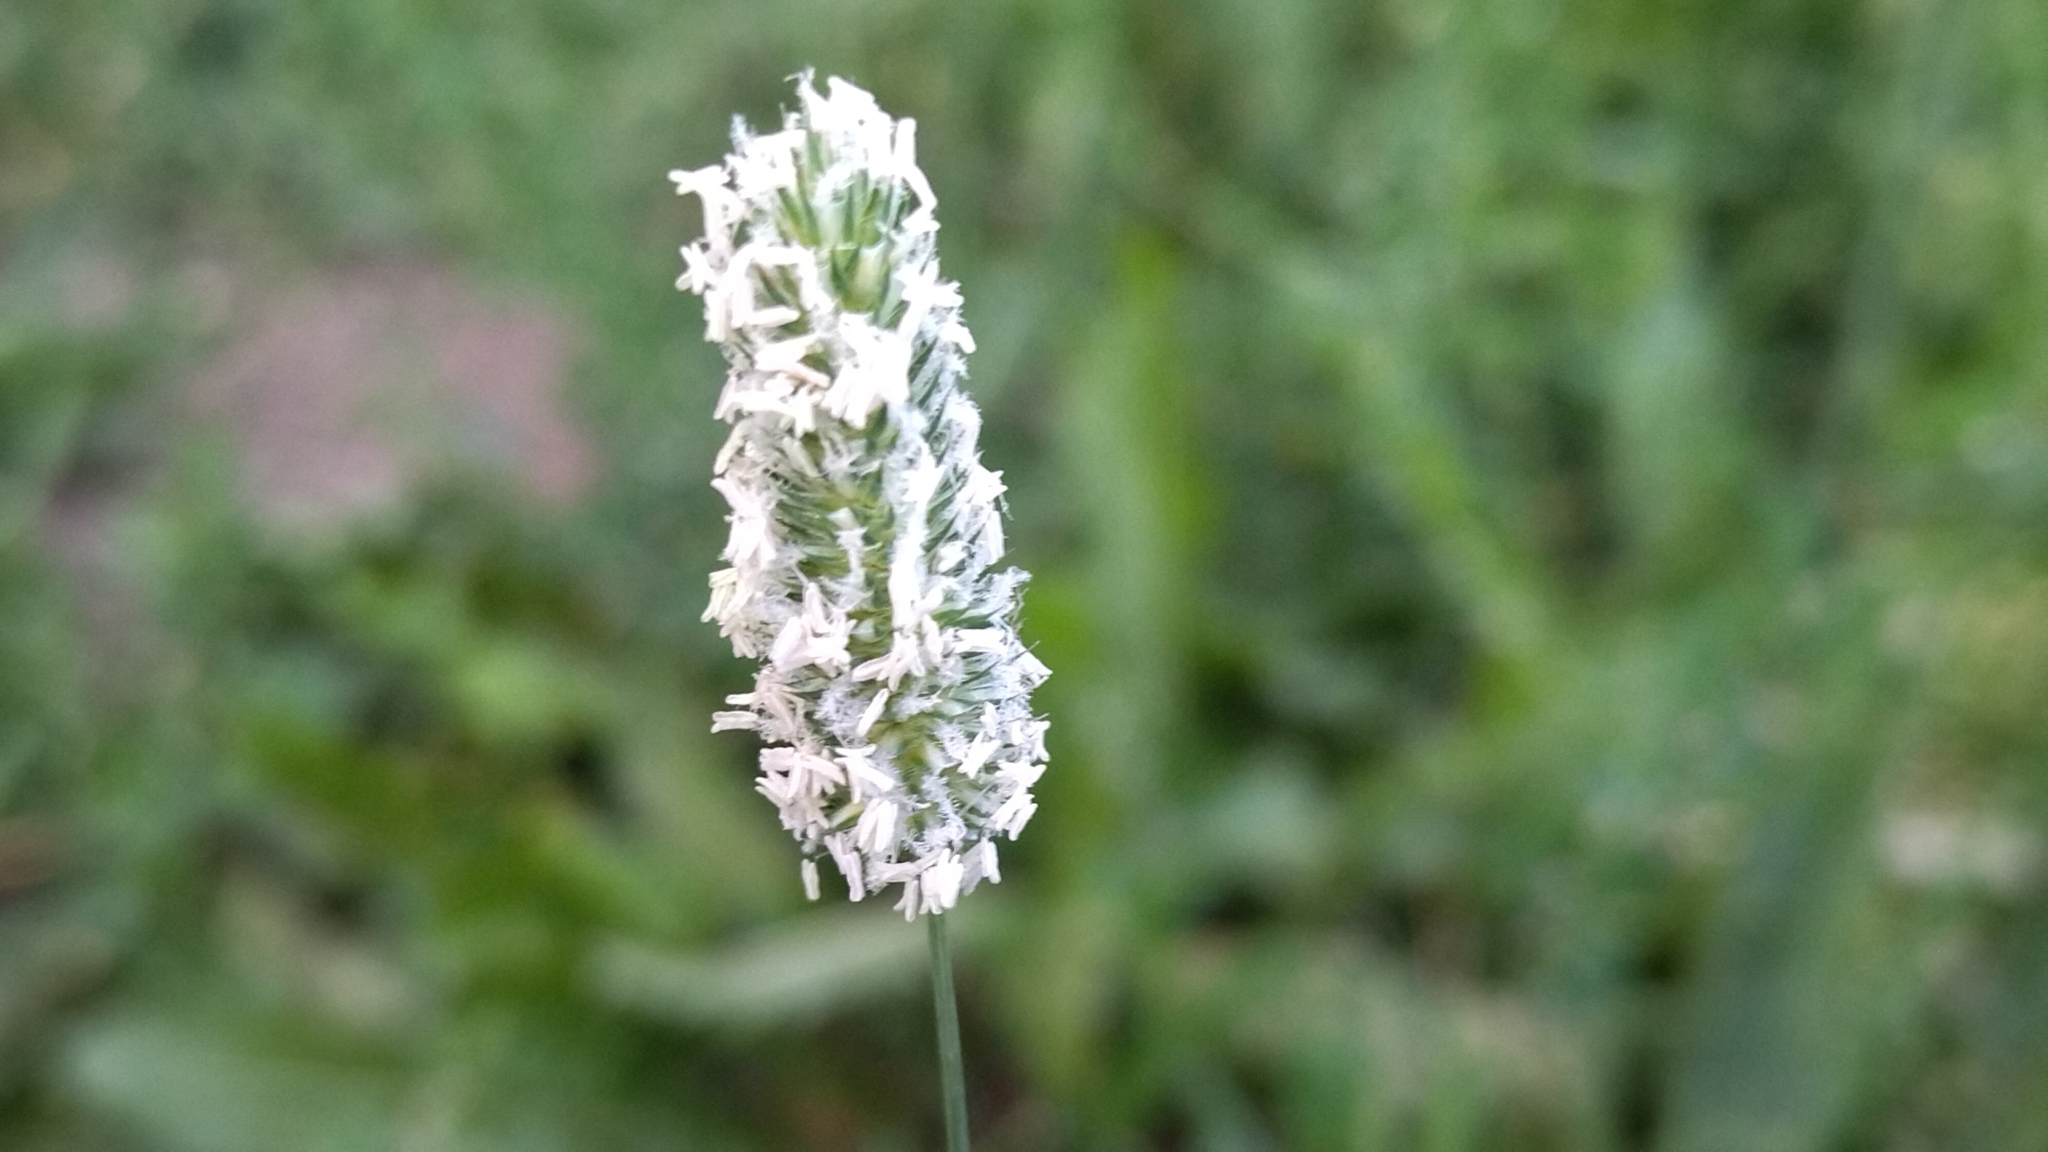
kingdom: Plantae
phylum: Tracheophyta
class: Liliopsida
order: Poales
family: Poaceae
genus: Phleum
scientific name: Phleum pratense
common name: Timothy grass
